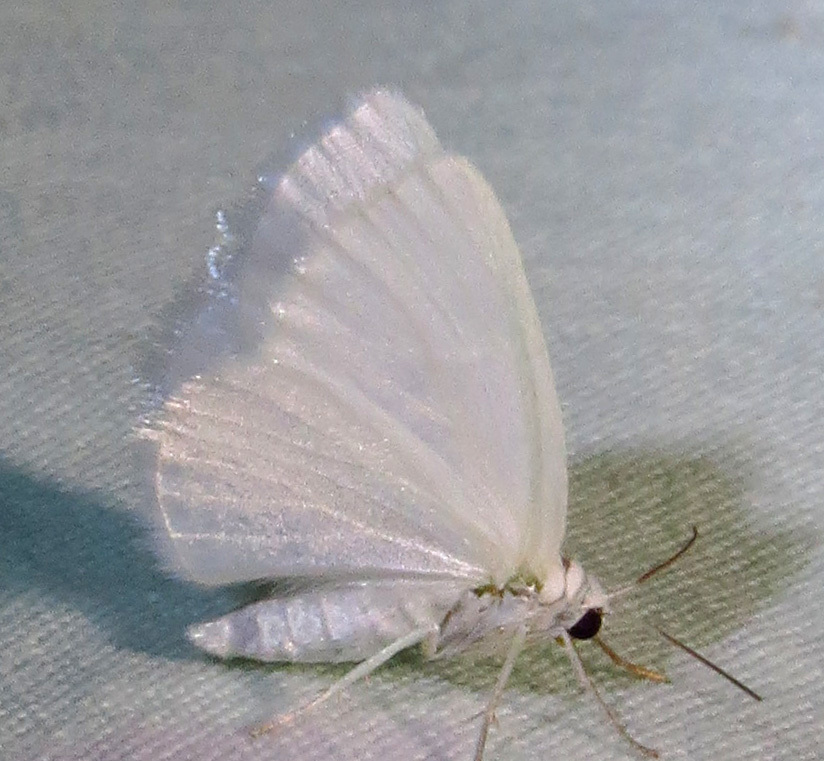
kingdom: Animalia
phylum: Arthropoda
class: Insecta
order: Lepidoptera
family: Geometridae
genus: Lomographa
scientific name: Lomographa vestaliata
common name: White spring moth
